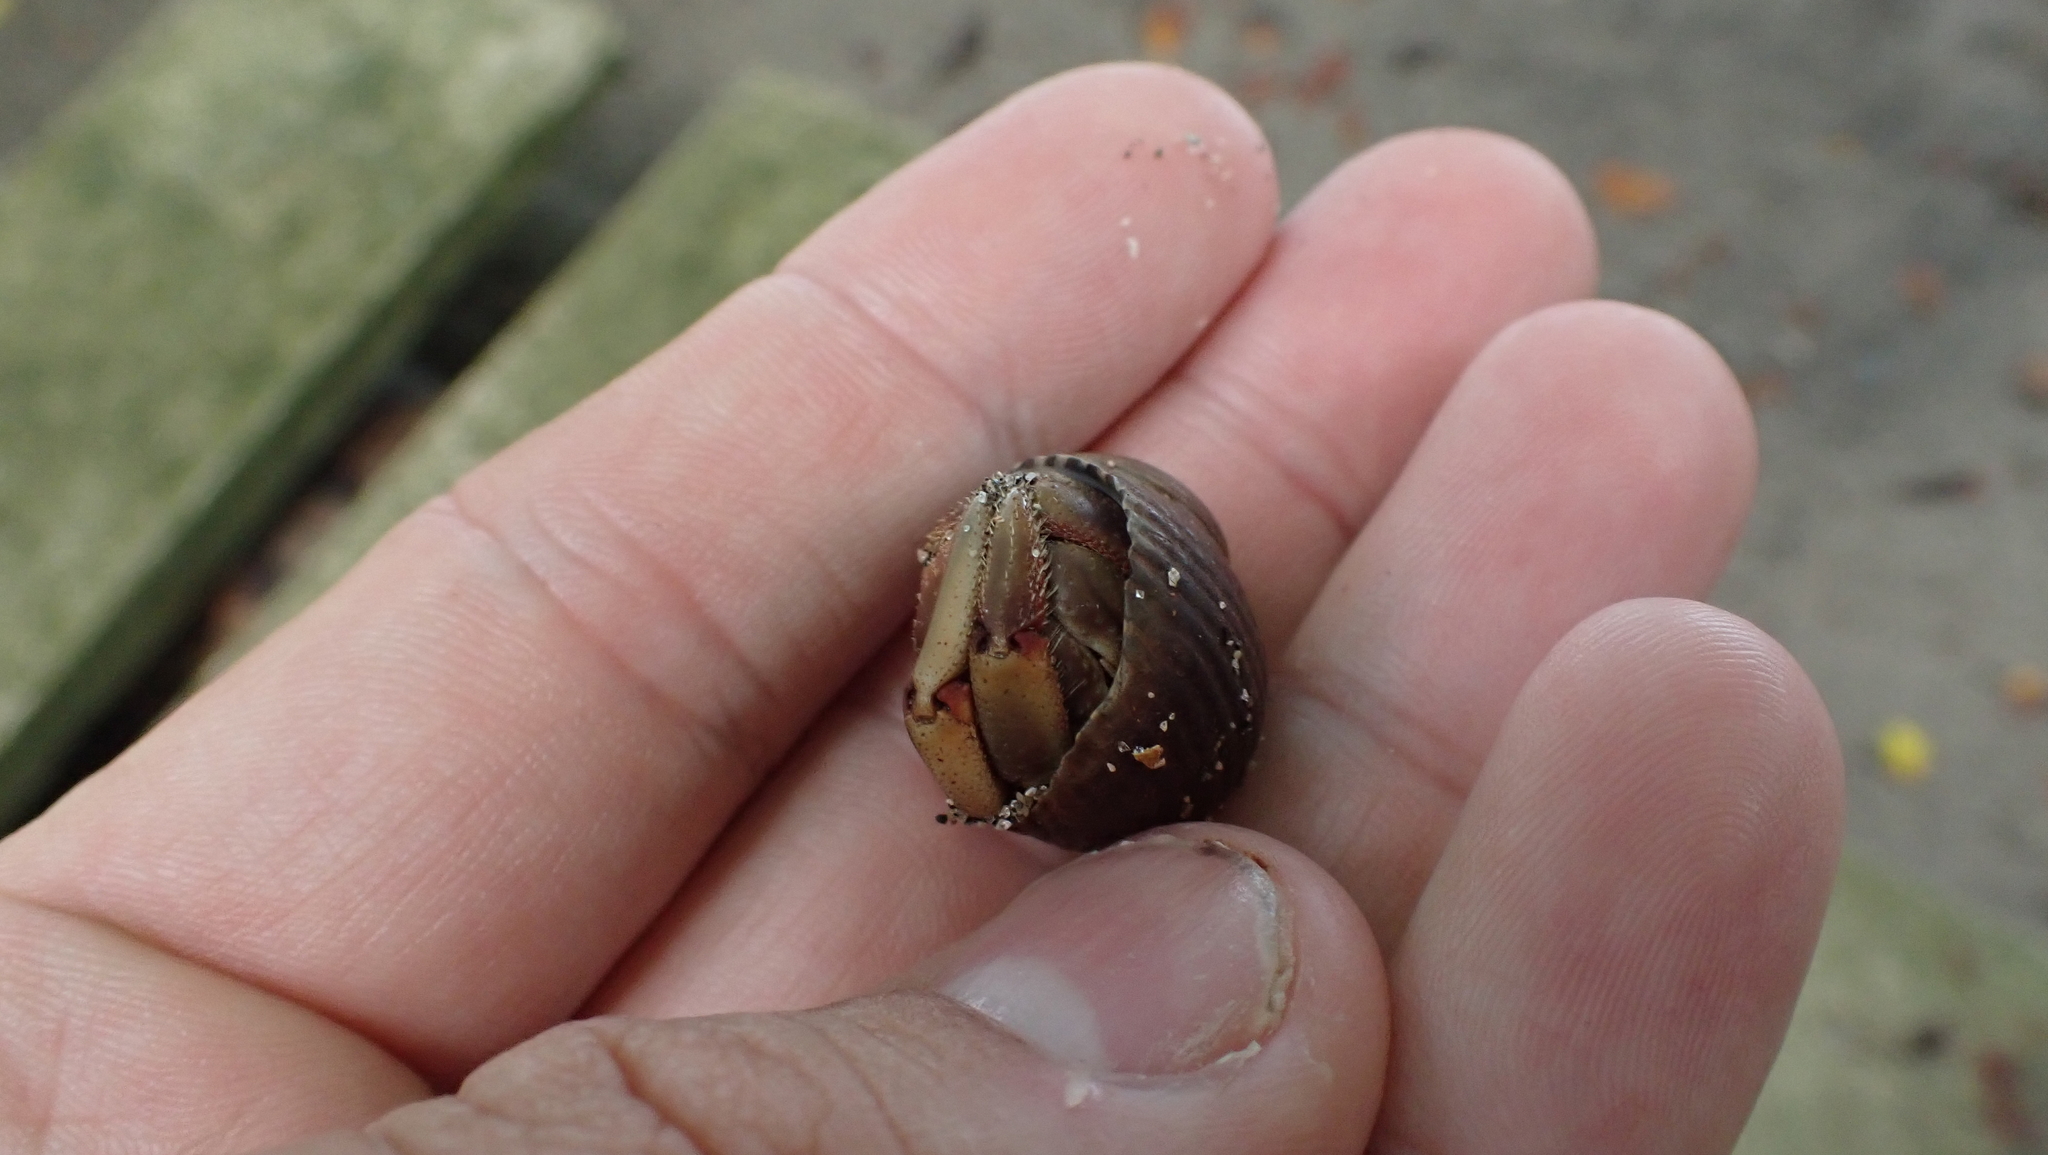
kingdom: Animalia
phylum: Arthropoda
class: Malacostraca
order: Decapoda
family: Coenobitidae
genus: Coenobita
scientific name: Coenobita compressus
